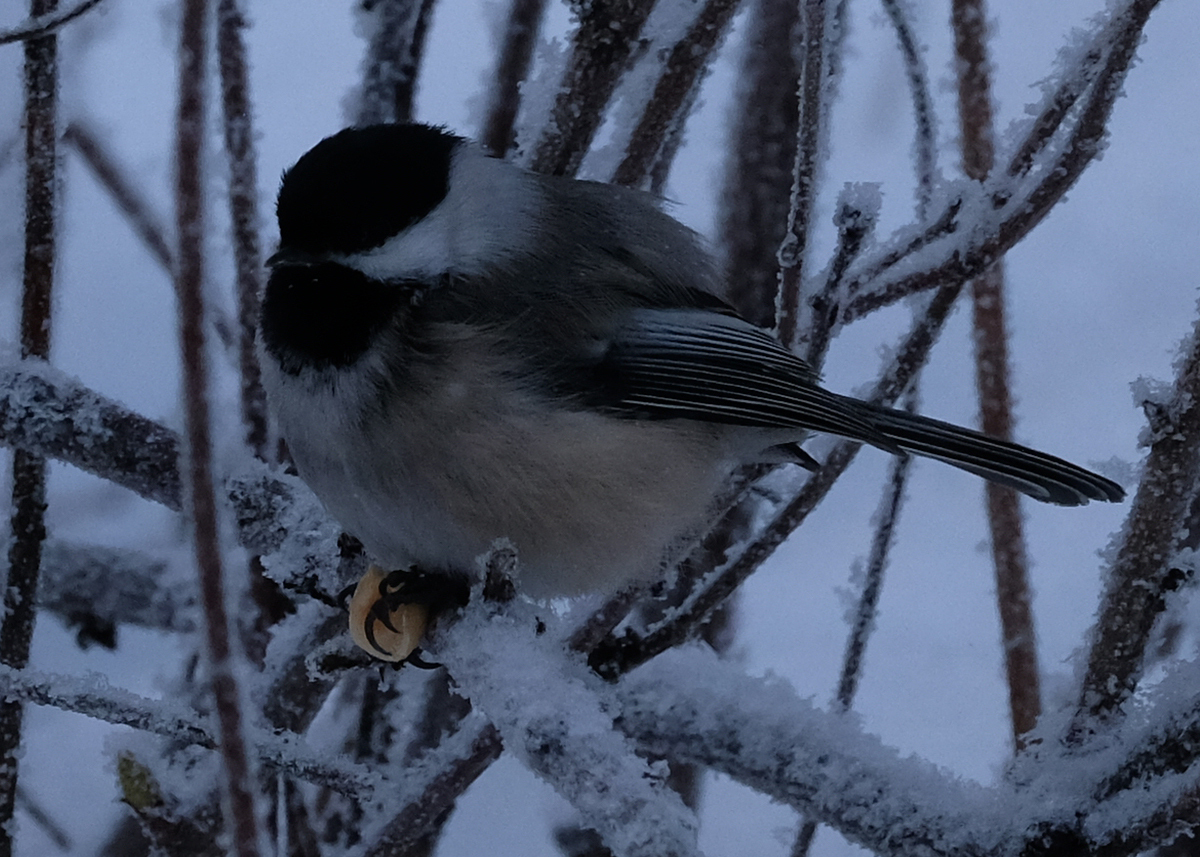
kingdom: Animalia
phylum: Chordata
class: Aves
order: Passeriformes
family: Paridae
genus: Poecile
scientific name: Poecile atricapillus
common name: Black-capped chickadee
